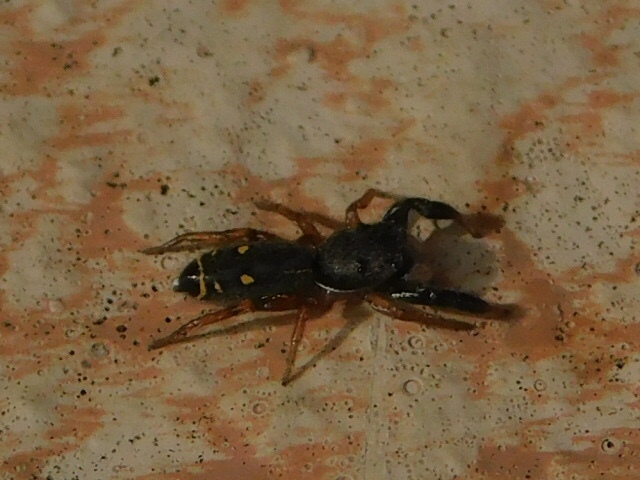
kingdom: Animalia
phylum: Arthropoda
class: Arachnida
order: Araneae
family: Salticidae
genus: Metacyrba
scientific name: Metacyrba punctata
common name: Jumping spiders
